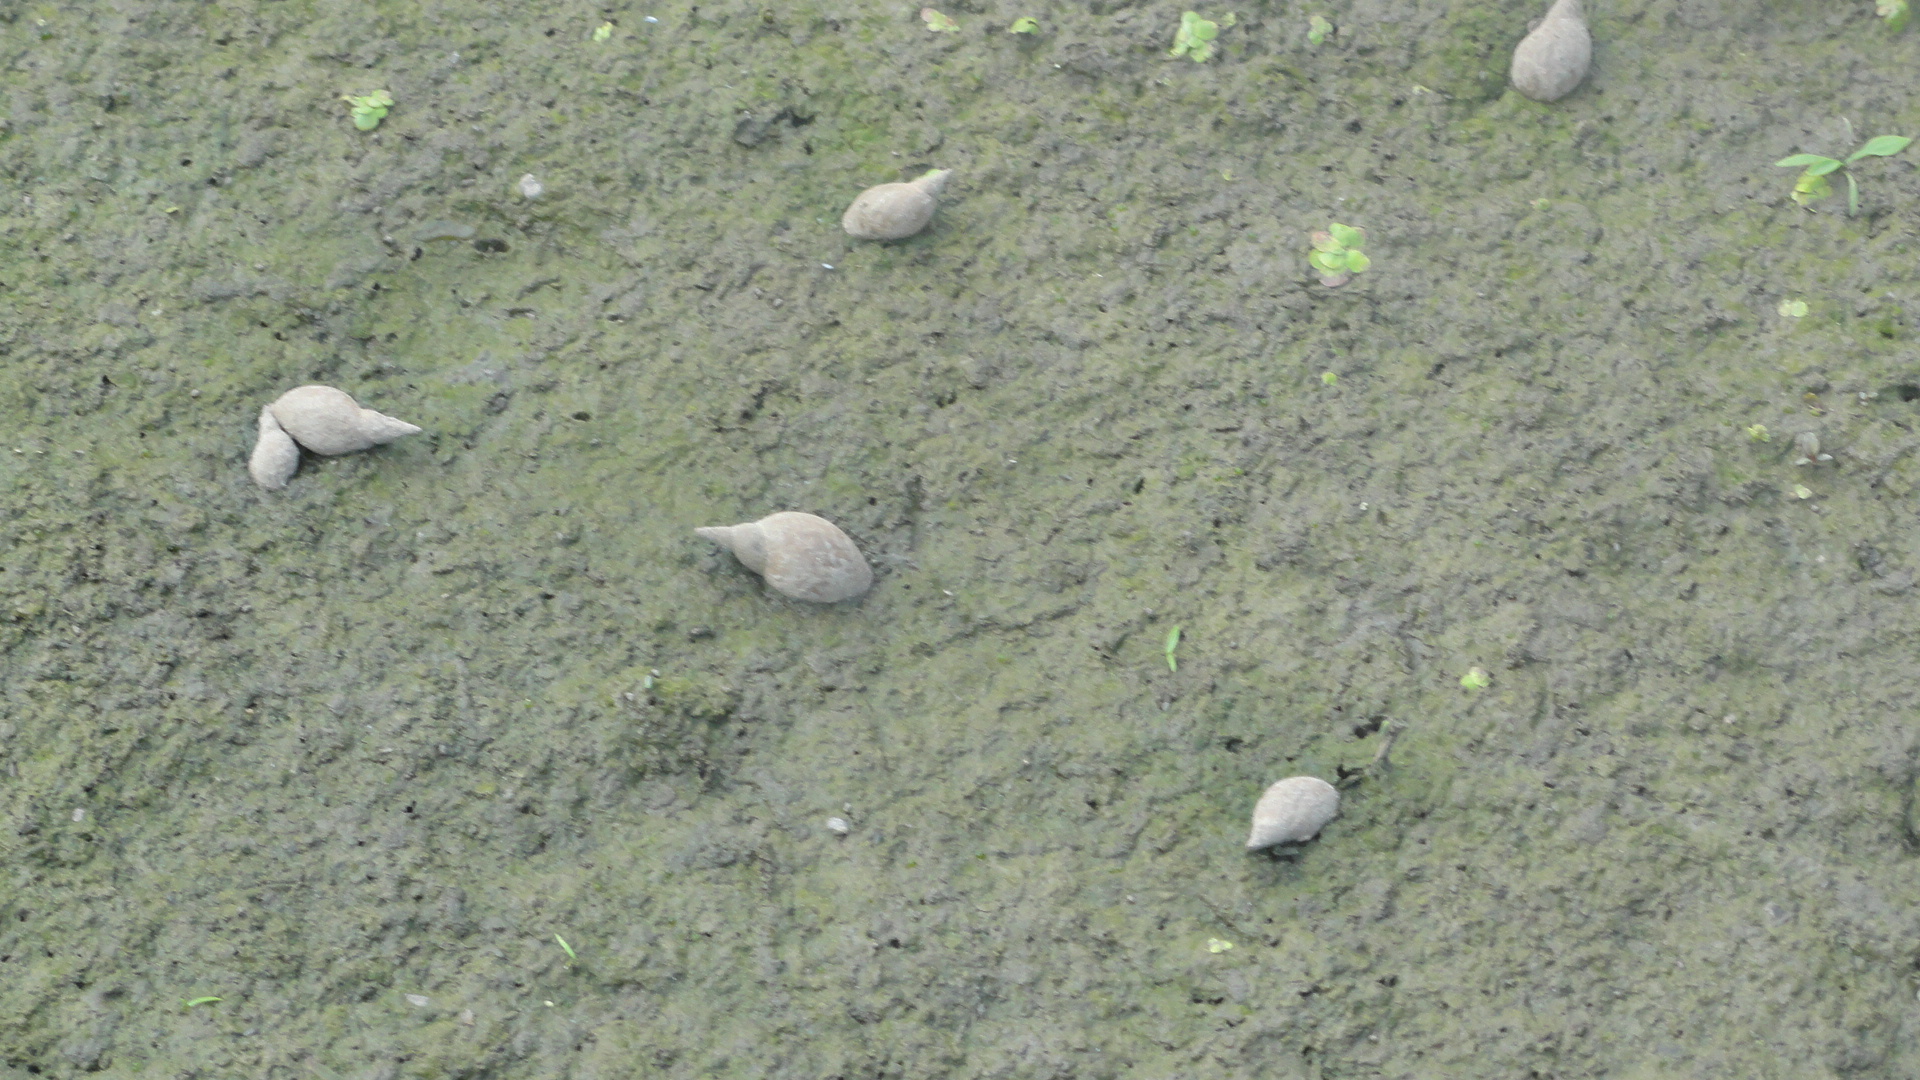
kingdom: Animalia
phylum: Mollusca
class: Gastropoda
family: Lymnaeidae
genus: Lymnaea
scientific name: Lymnaea stagnalis
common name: Great pond snail
